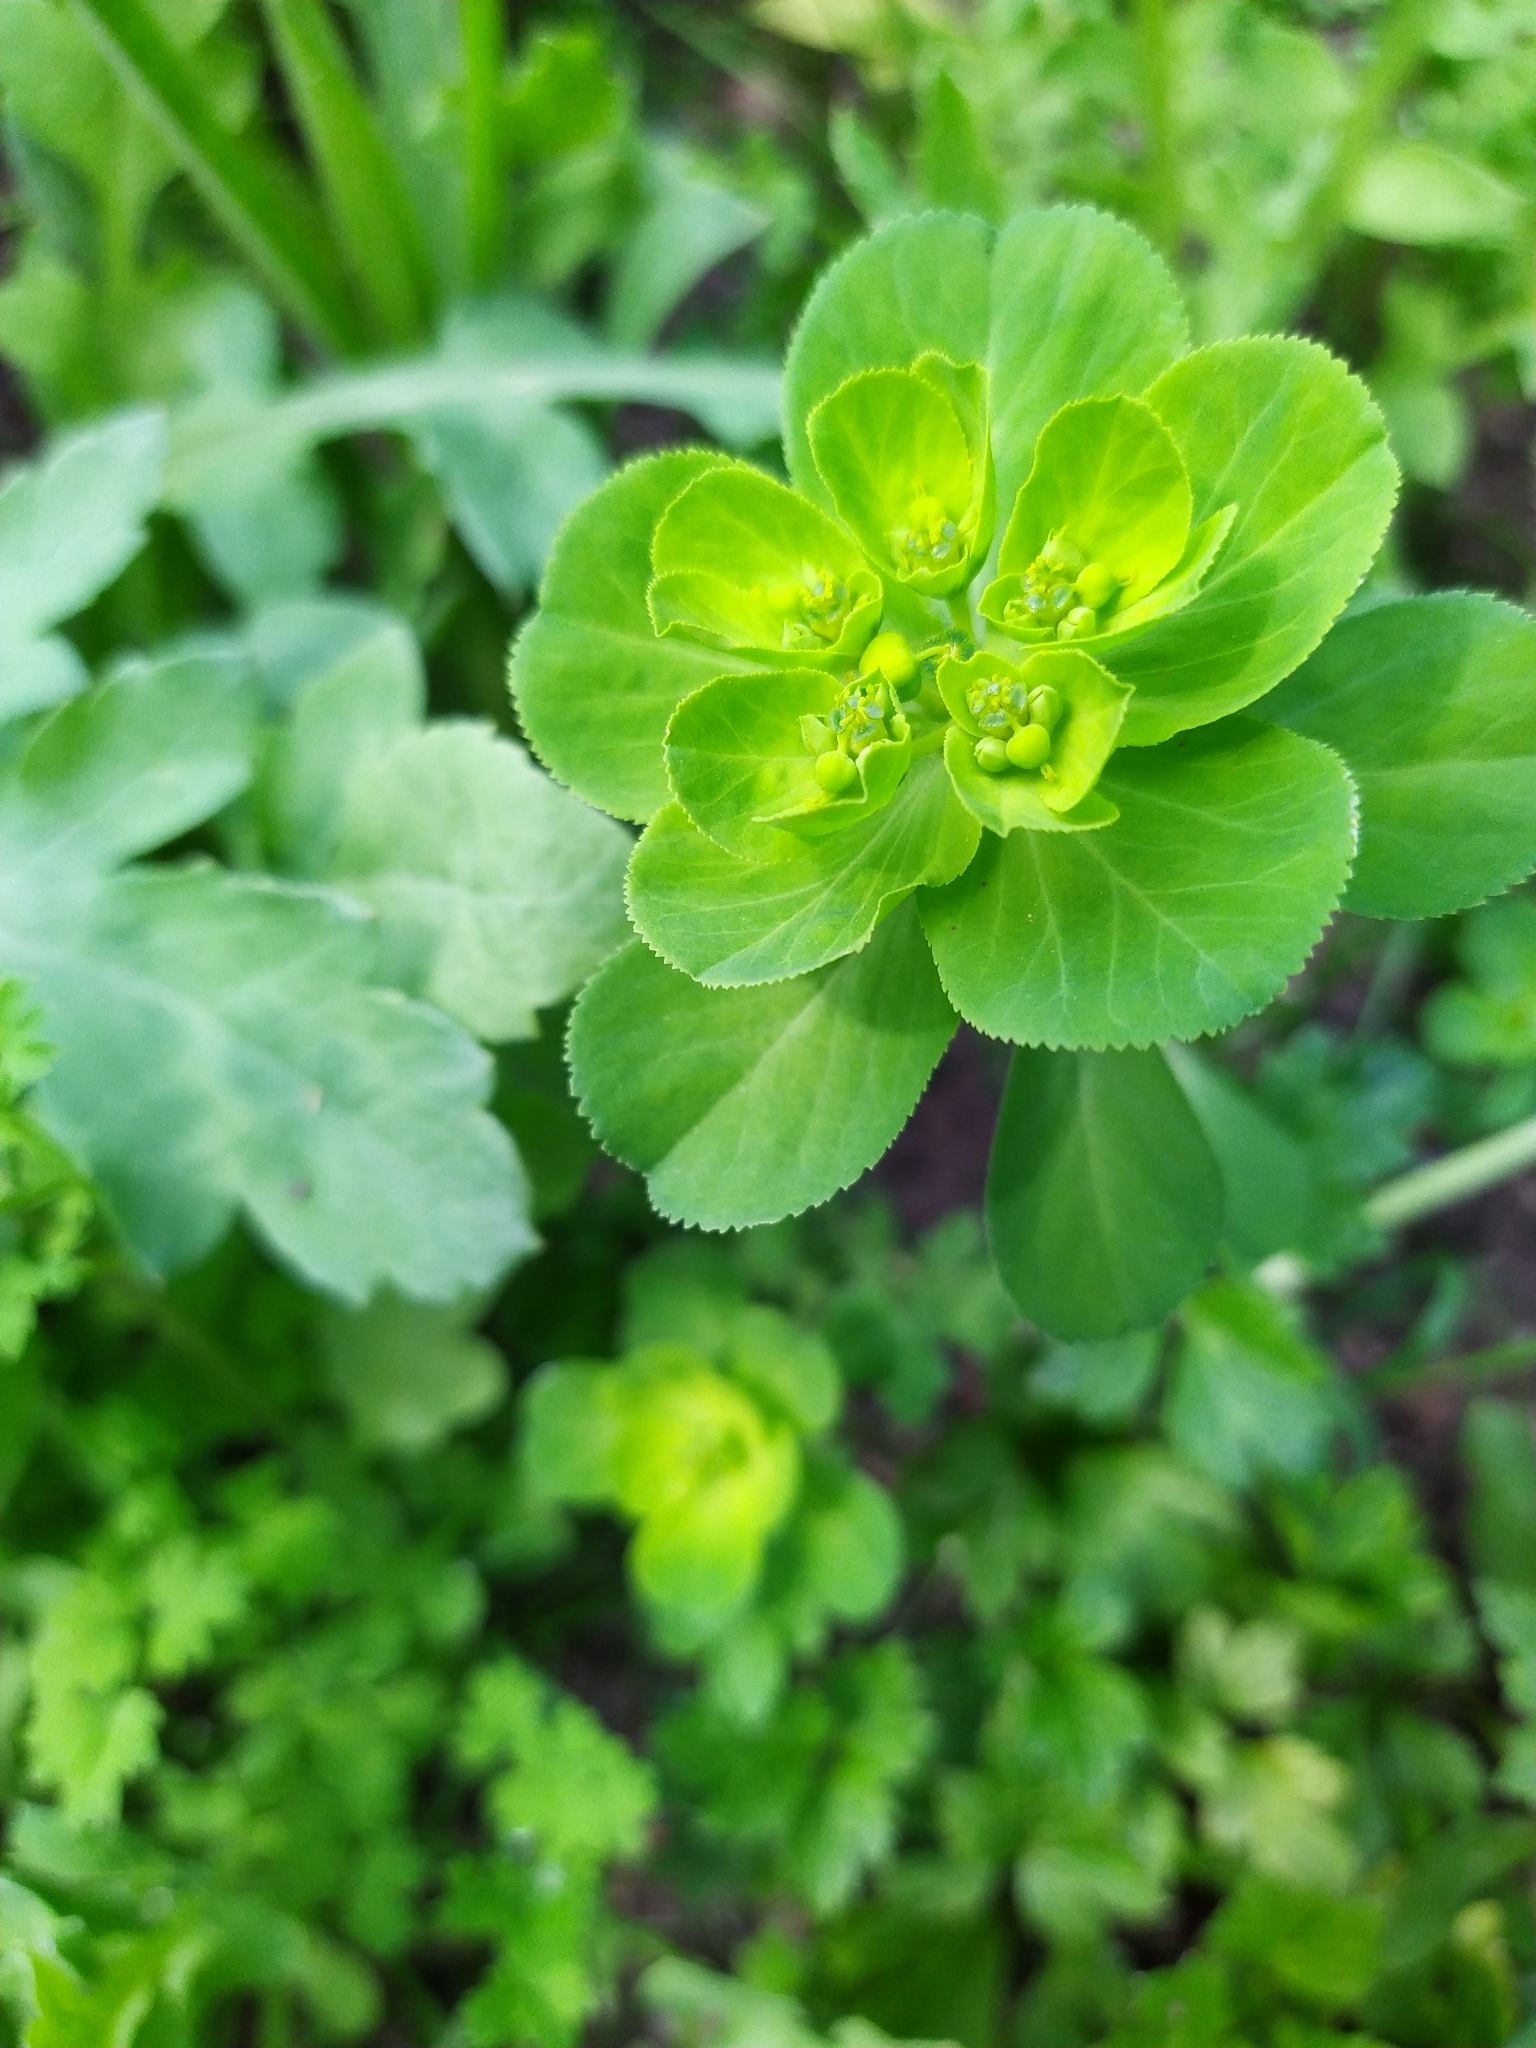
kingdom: Plantae
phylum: Tracheophyta
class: Magnoliopsida
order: Malpighiales
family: Euphorbiaceae
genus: Euphorbia
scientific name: Euphorbia helioscopia
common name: Sun spurge
